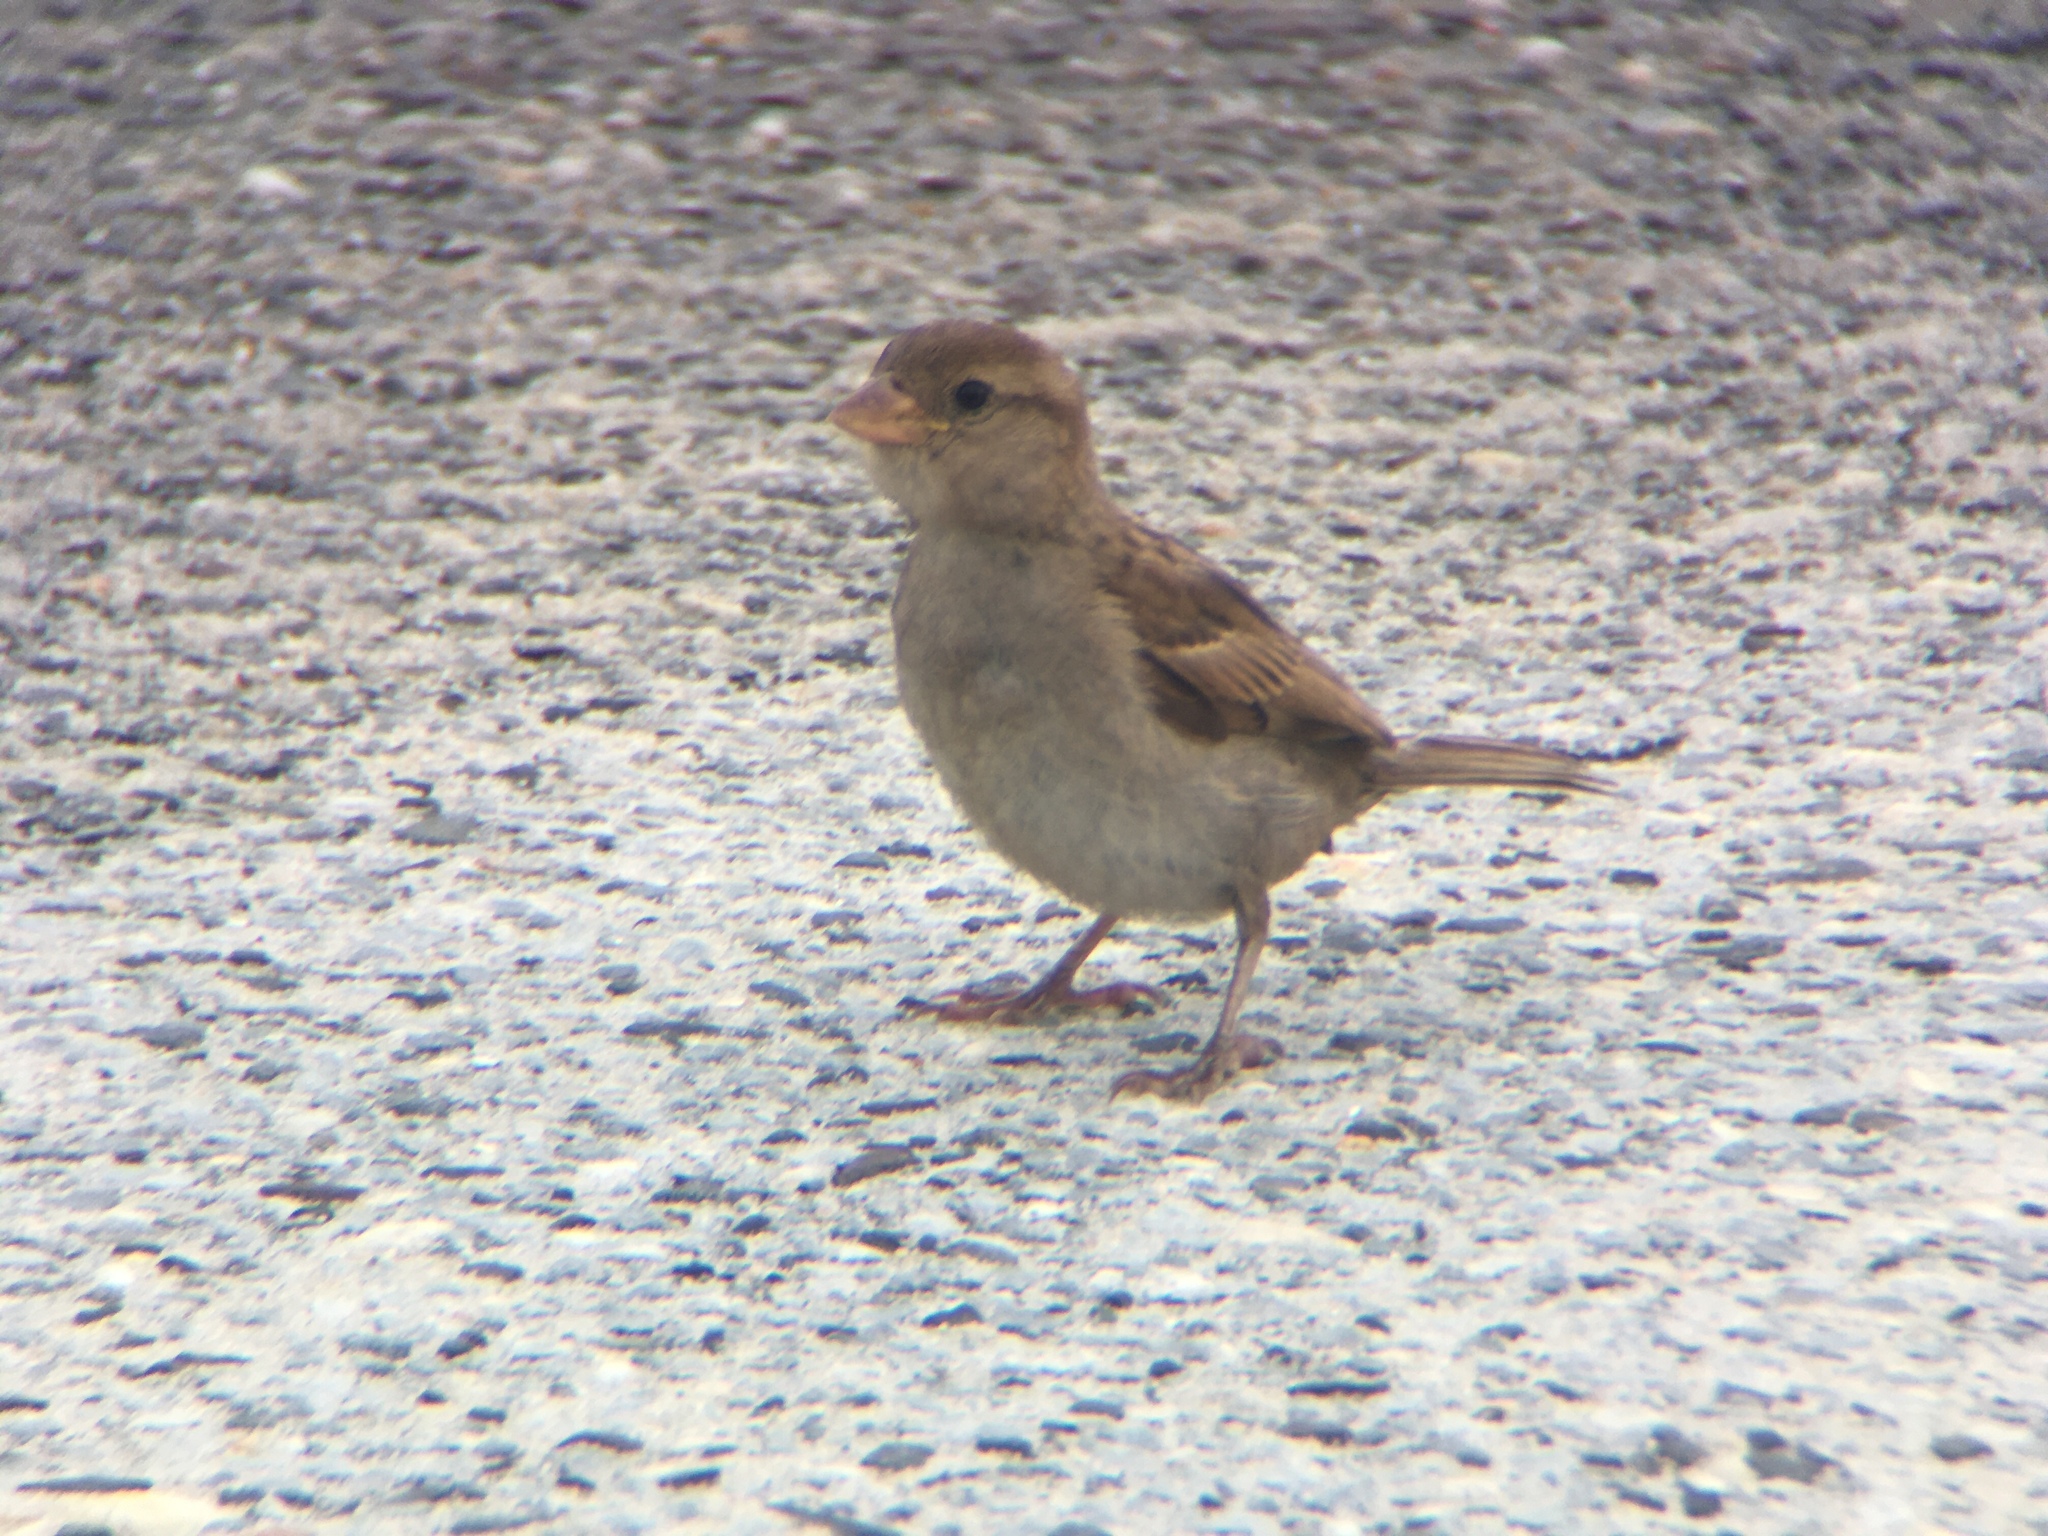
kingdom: Animalia
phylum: Chordata
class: Aves
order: Passeriformes
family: Passeridae
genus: Passer
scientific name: Passer domesticus
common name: House sparrow
